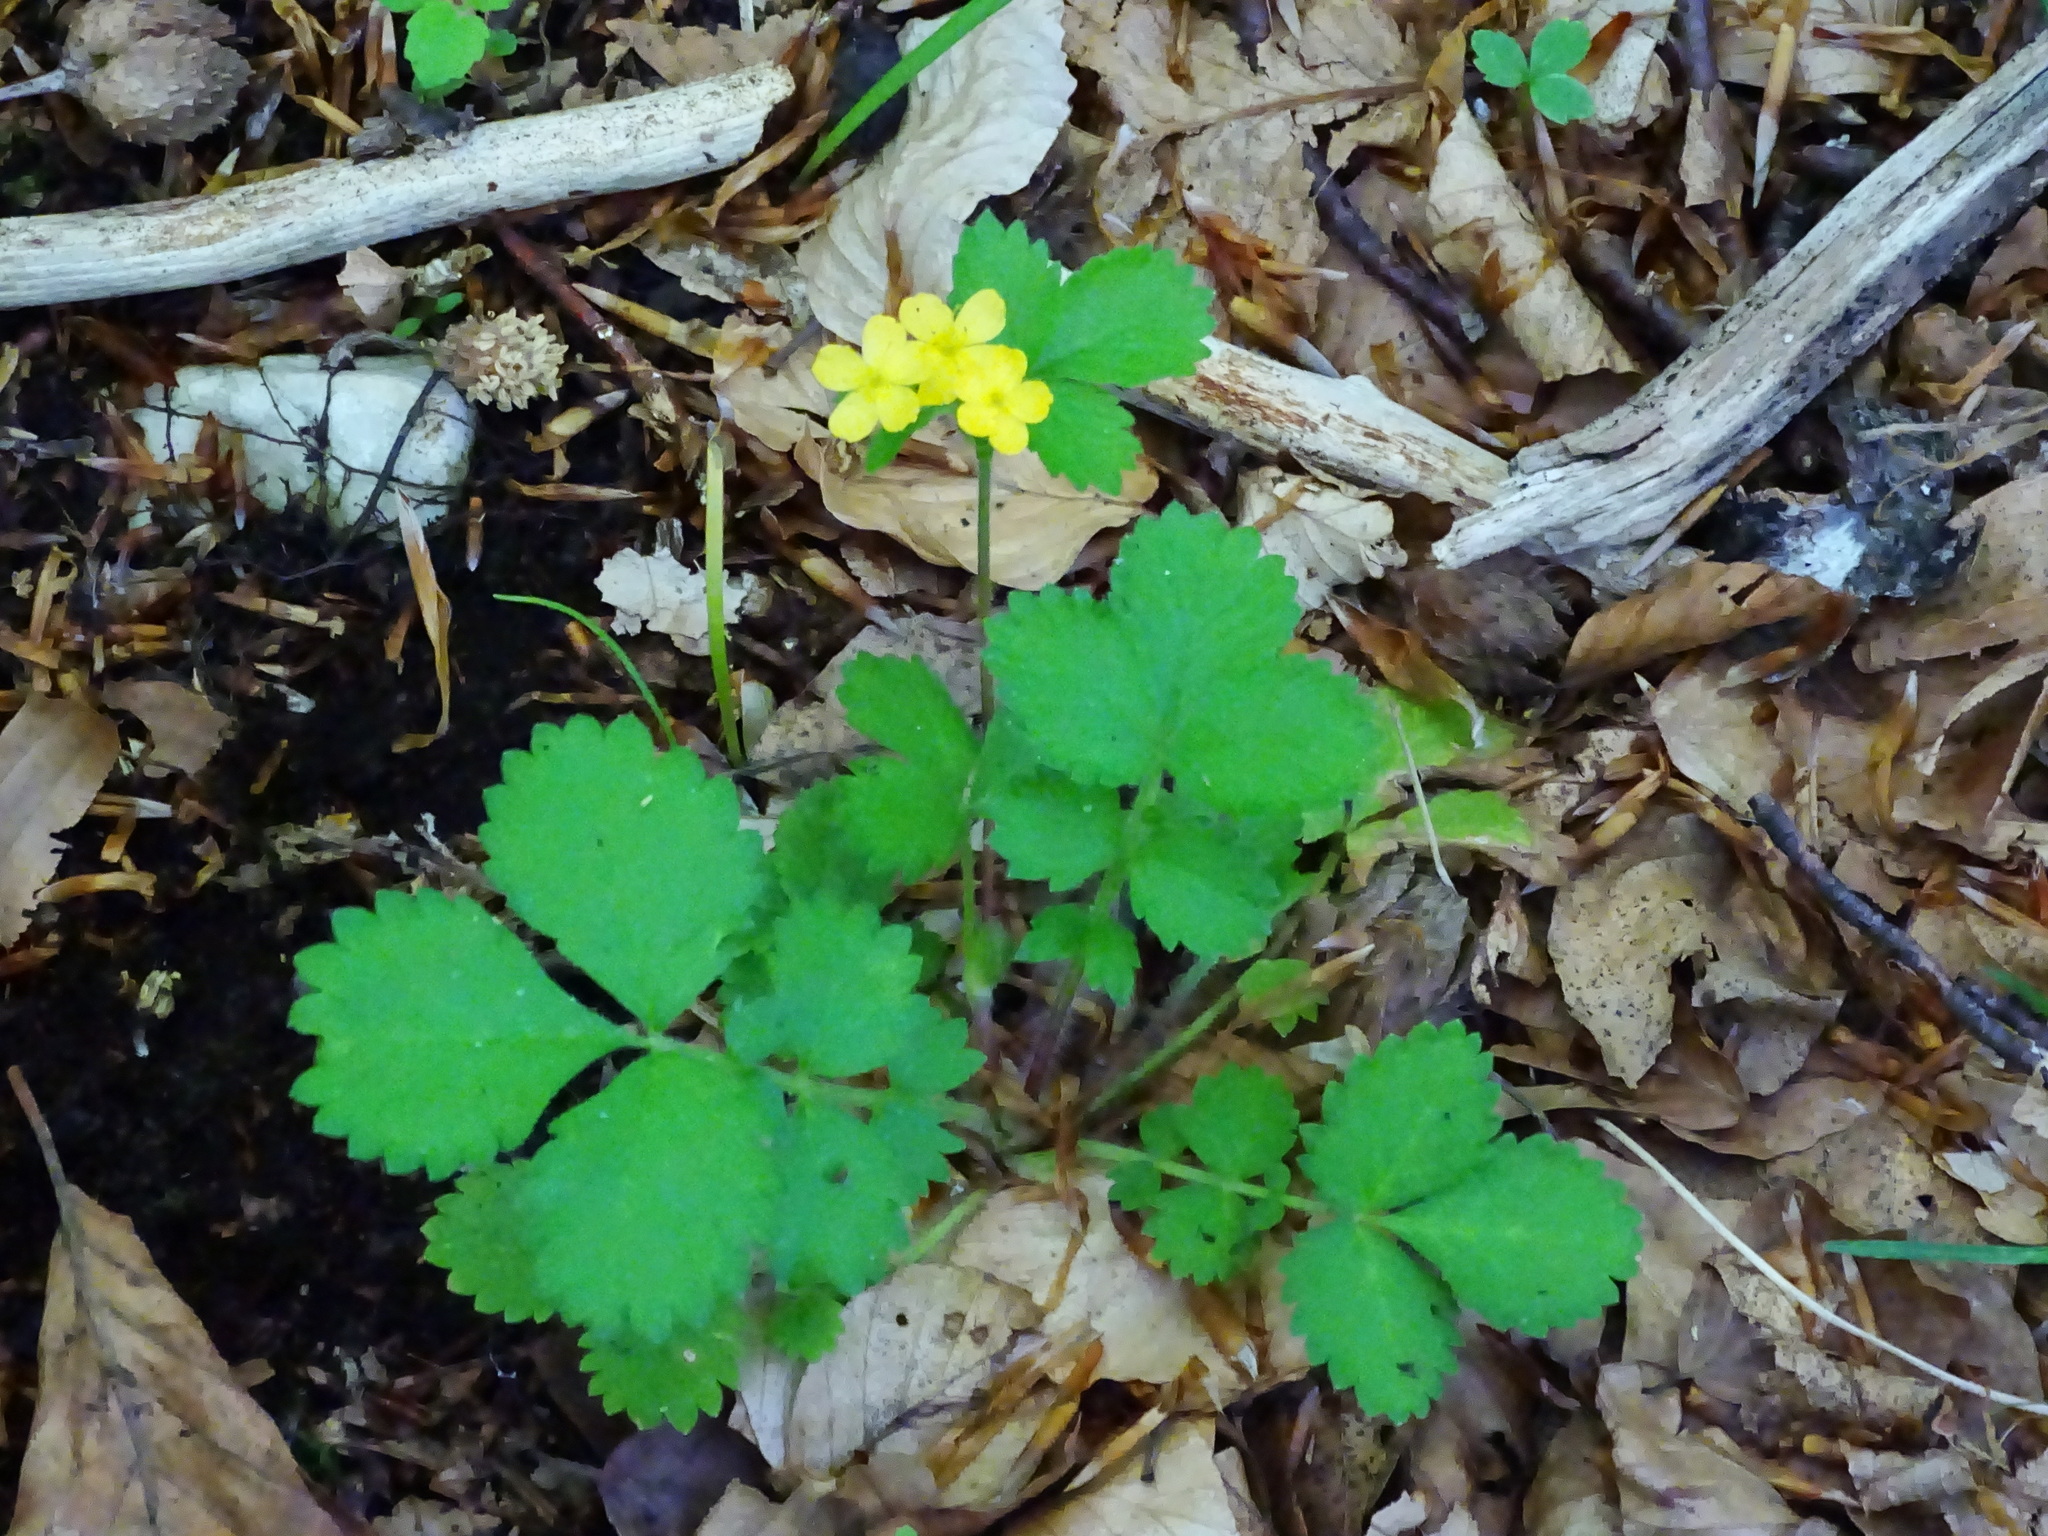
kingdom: Plantae
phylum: Tracheophyta
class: Magnoliopsida
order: Rosales
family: Rosaceae
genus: Aremonia
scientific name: Aremonia agrimonoides
